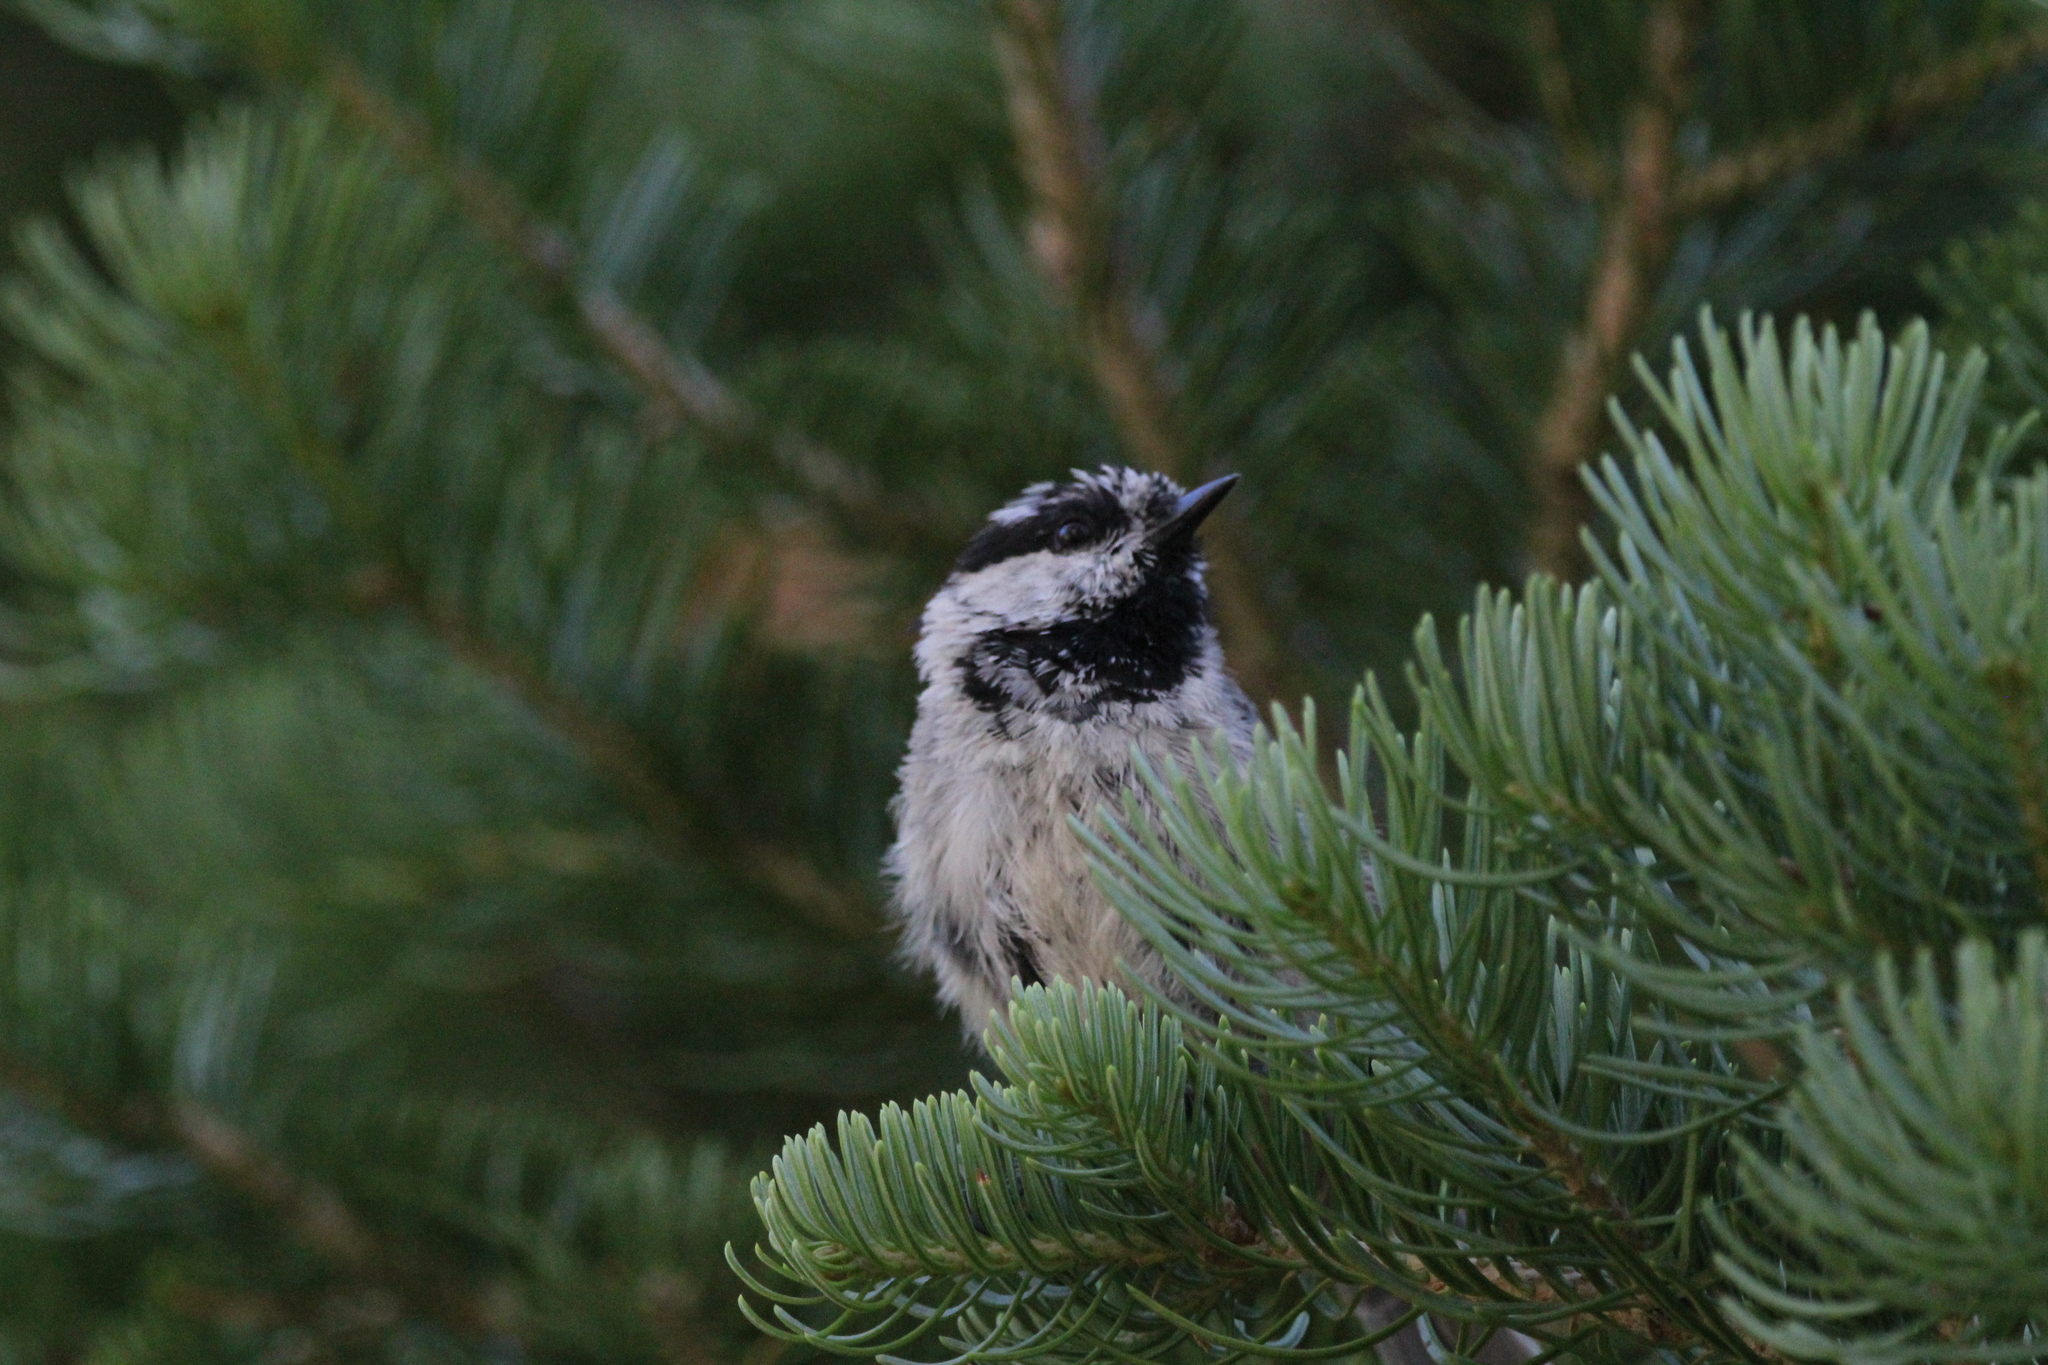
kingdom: Animalia
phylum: Chordata
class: Aves
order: Passeriformes
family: Paridae
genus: Poecile
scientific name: Poecile gambeli
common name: Mountain chickadee
